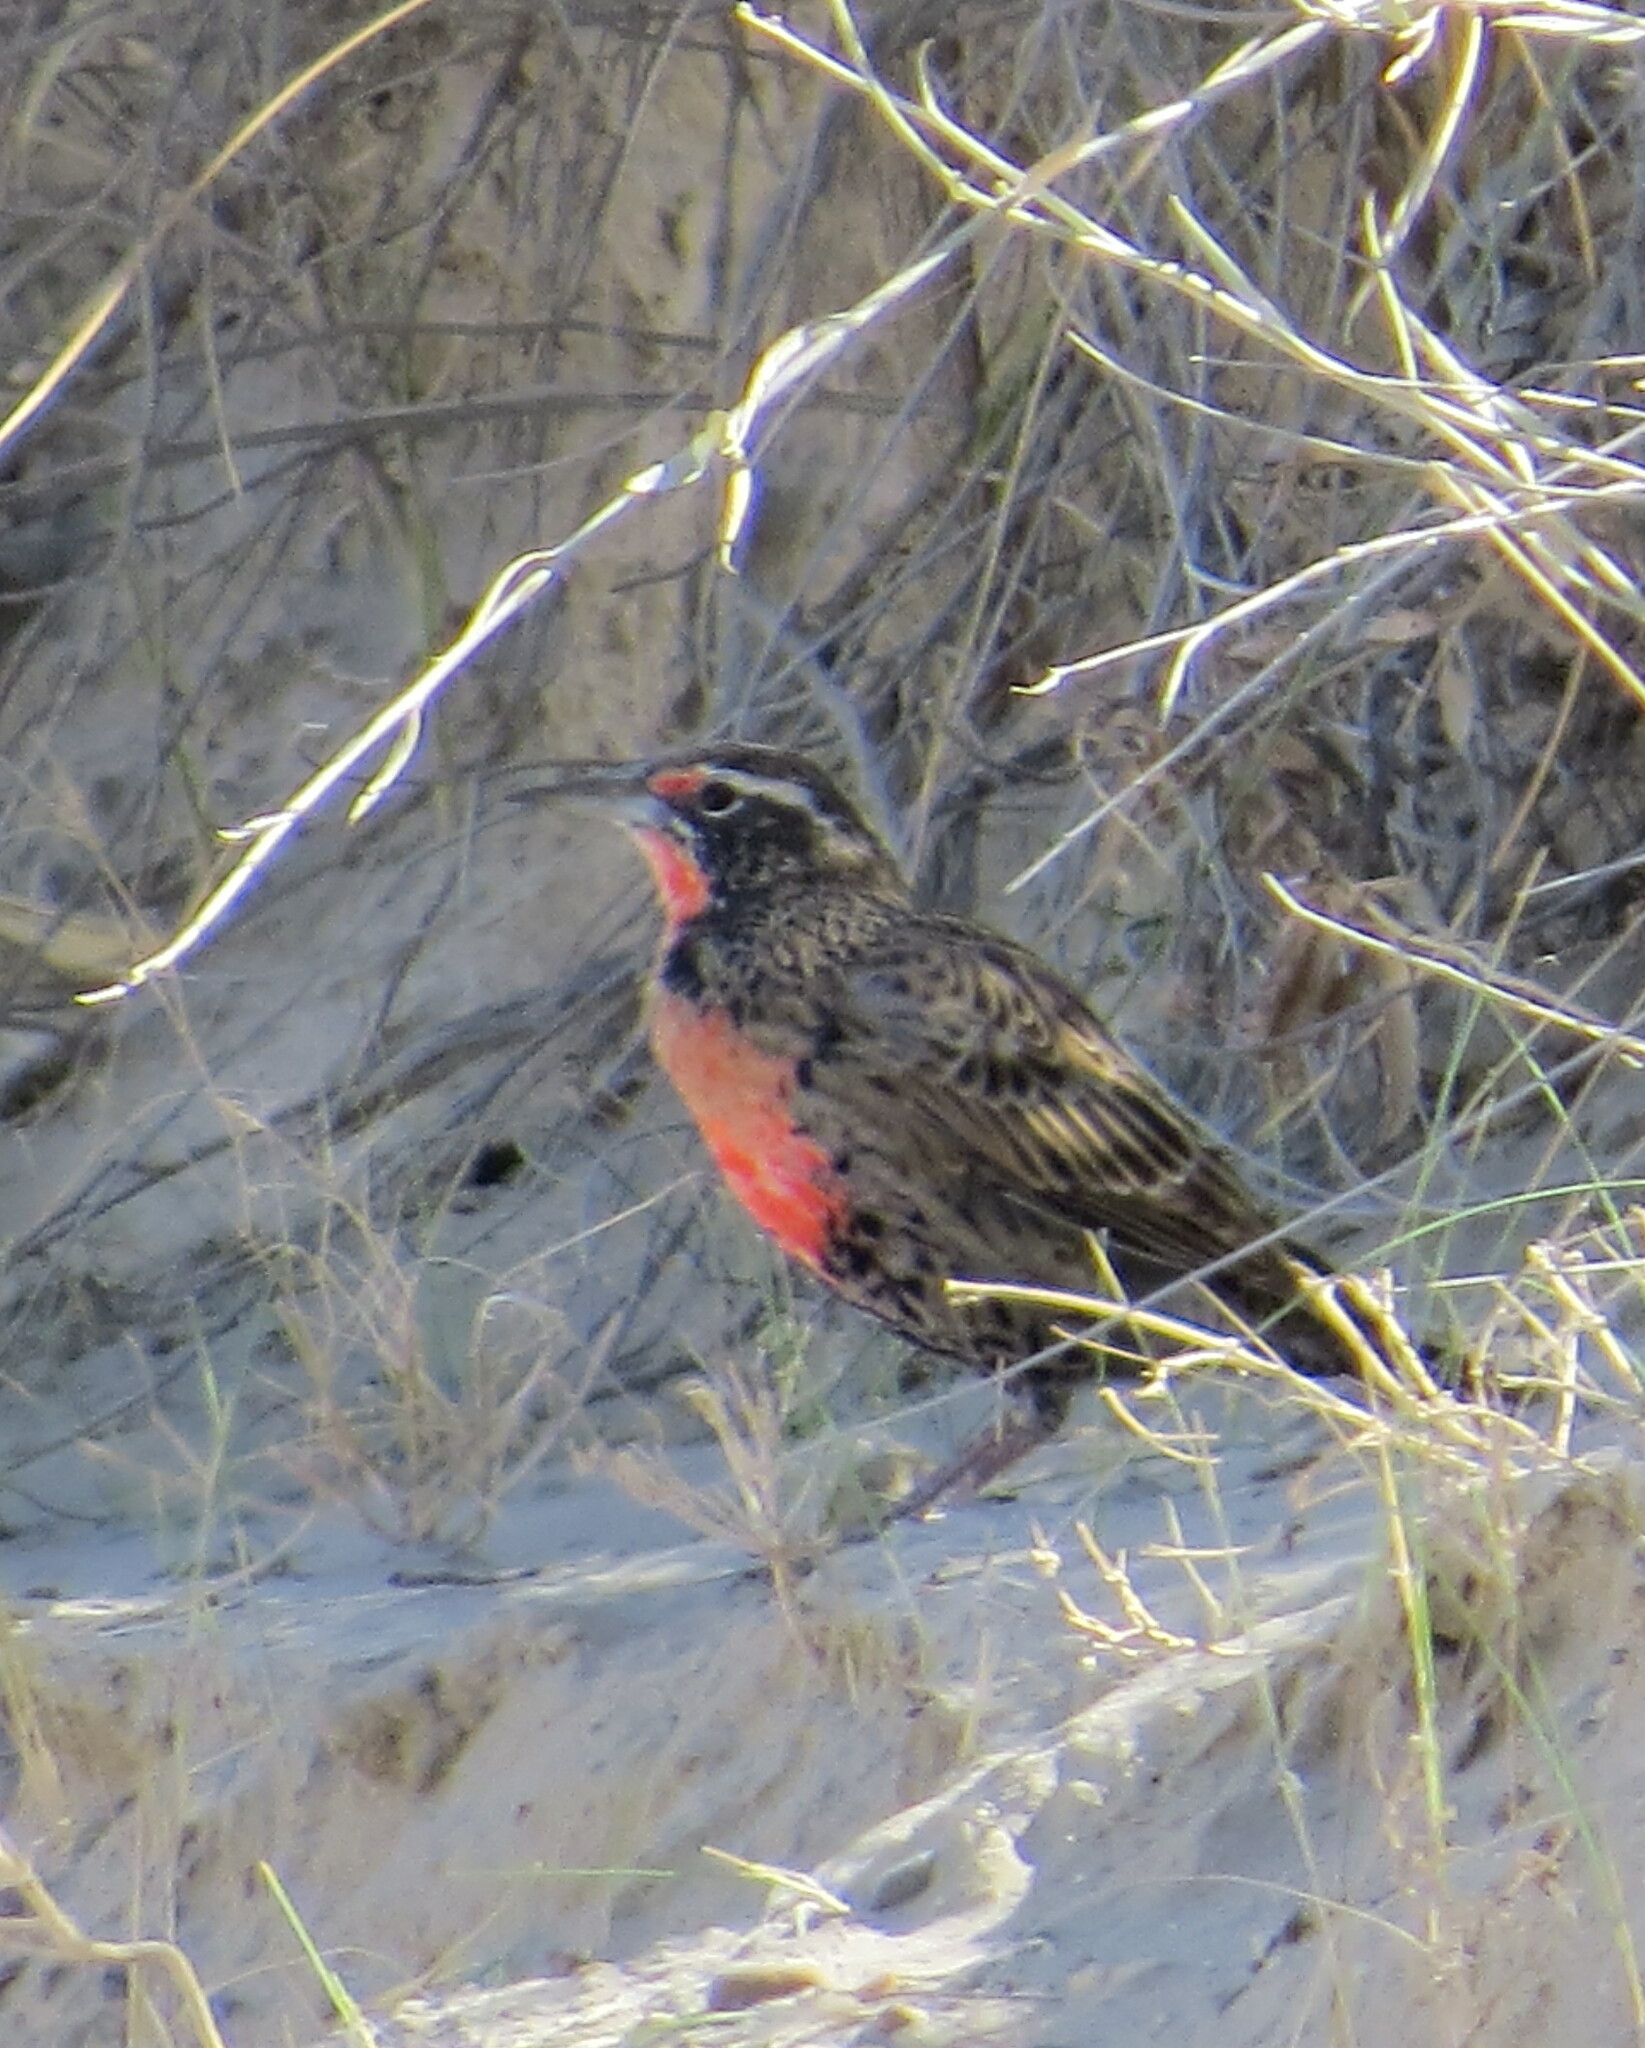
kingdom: Animalia
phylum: Chordata
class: Aves
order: Passeriformes
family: Icteridae
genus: Sturnella
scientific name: Sturnella loyca
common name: Long-tailed meadowlark
